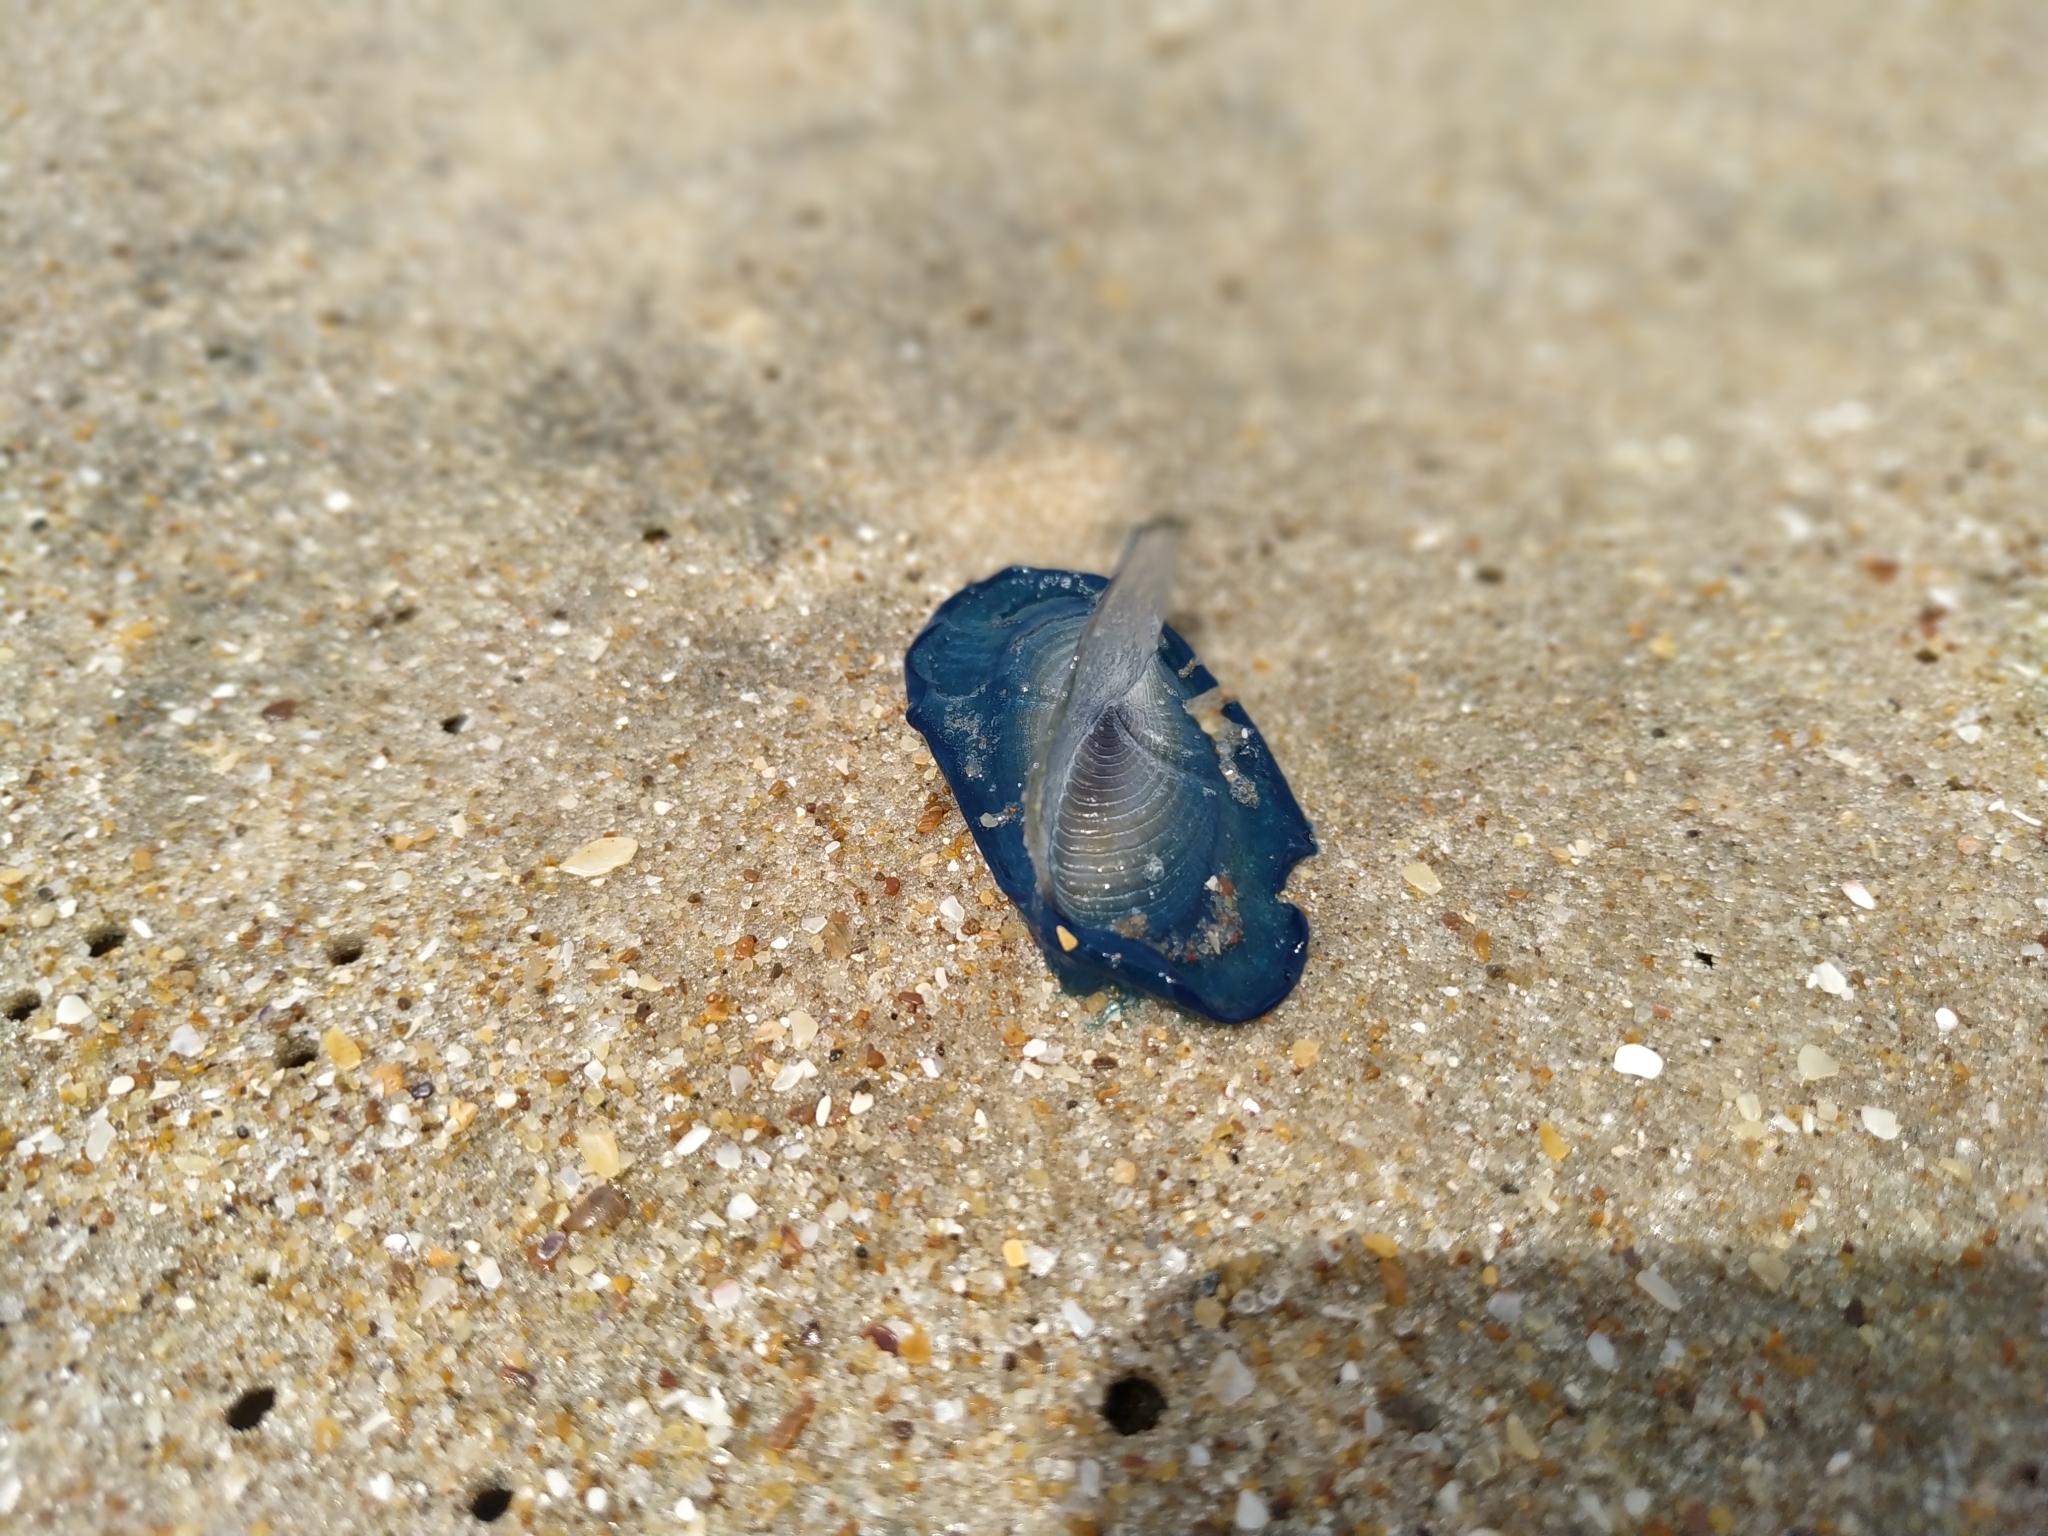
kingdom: Animalia
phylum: Cnidaria
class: Hydrozoa
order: Anthoathecata
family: Porpitidae
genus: Velella
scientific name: Velella velella
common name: By-the-wind-sailor
